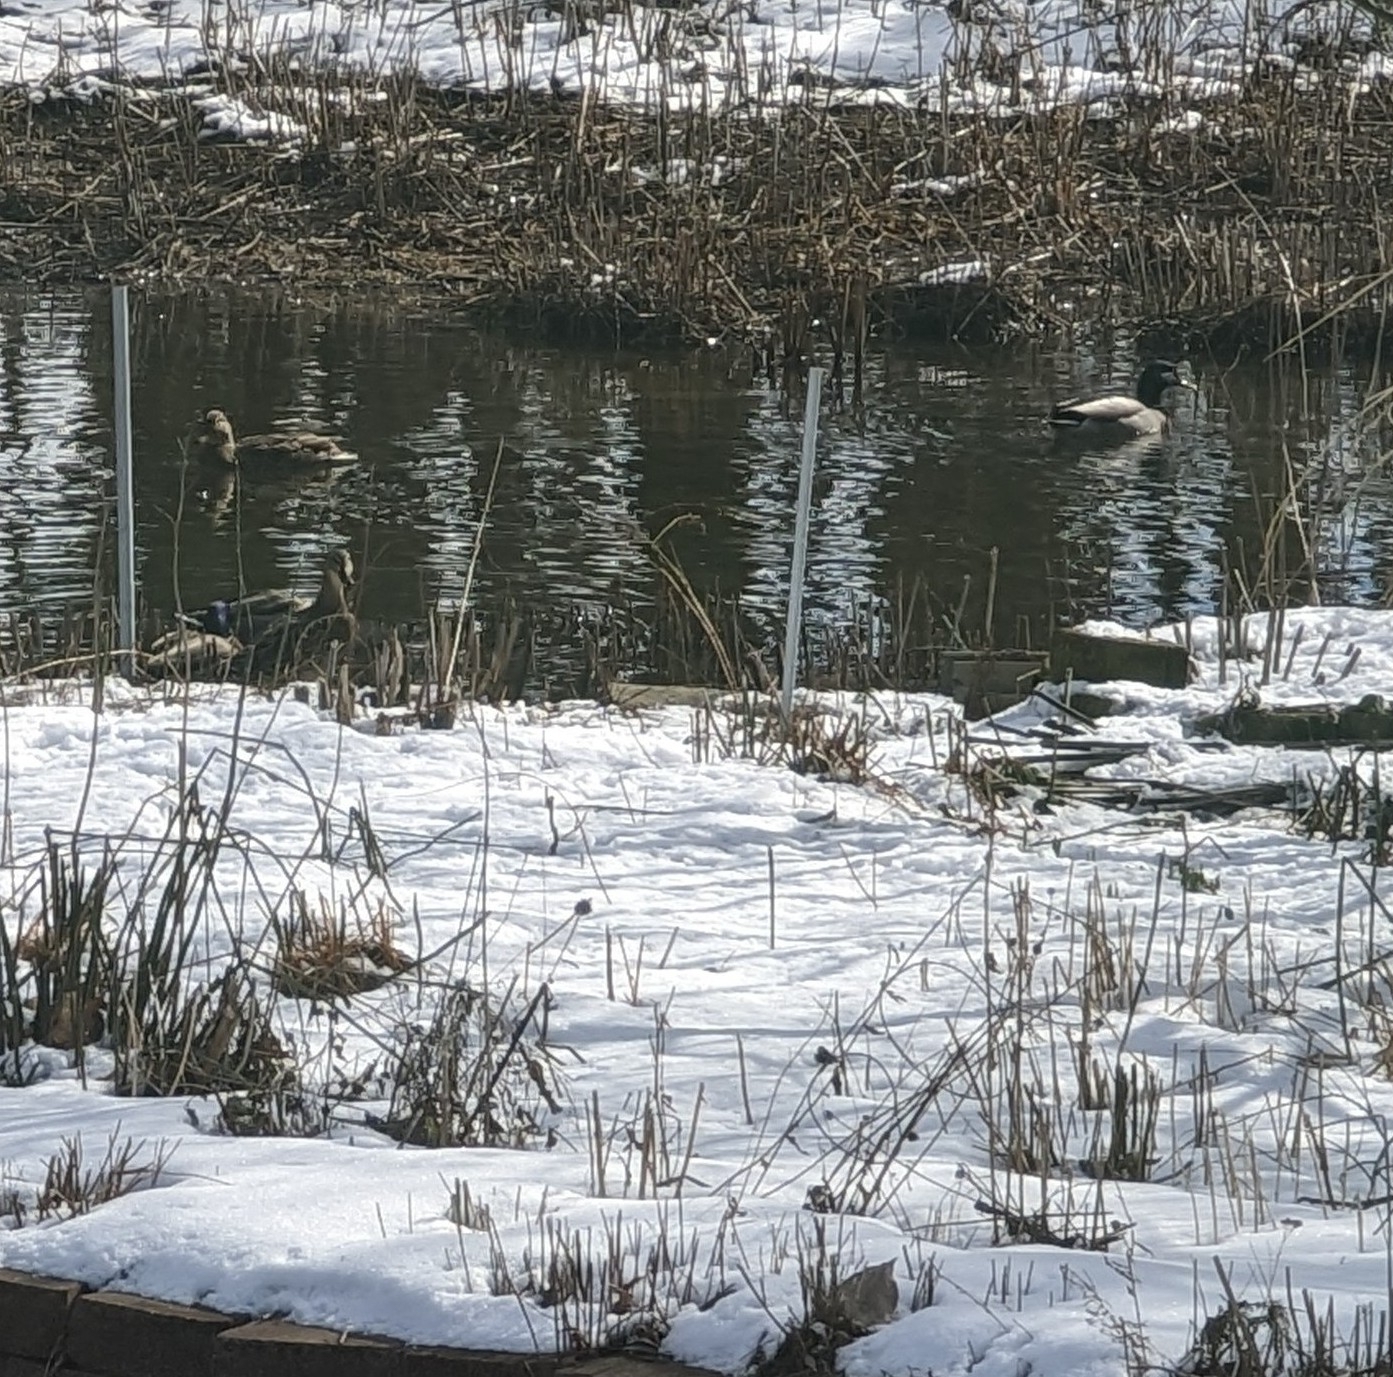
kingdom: Animalia
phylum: Chordata
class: Aves
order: Anseriformes
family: Anatidae
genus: Anas
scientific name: Anas platyrhynchos
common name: Mallard
